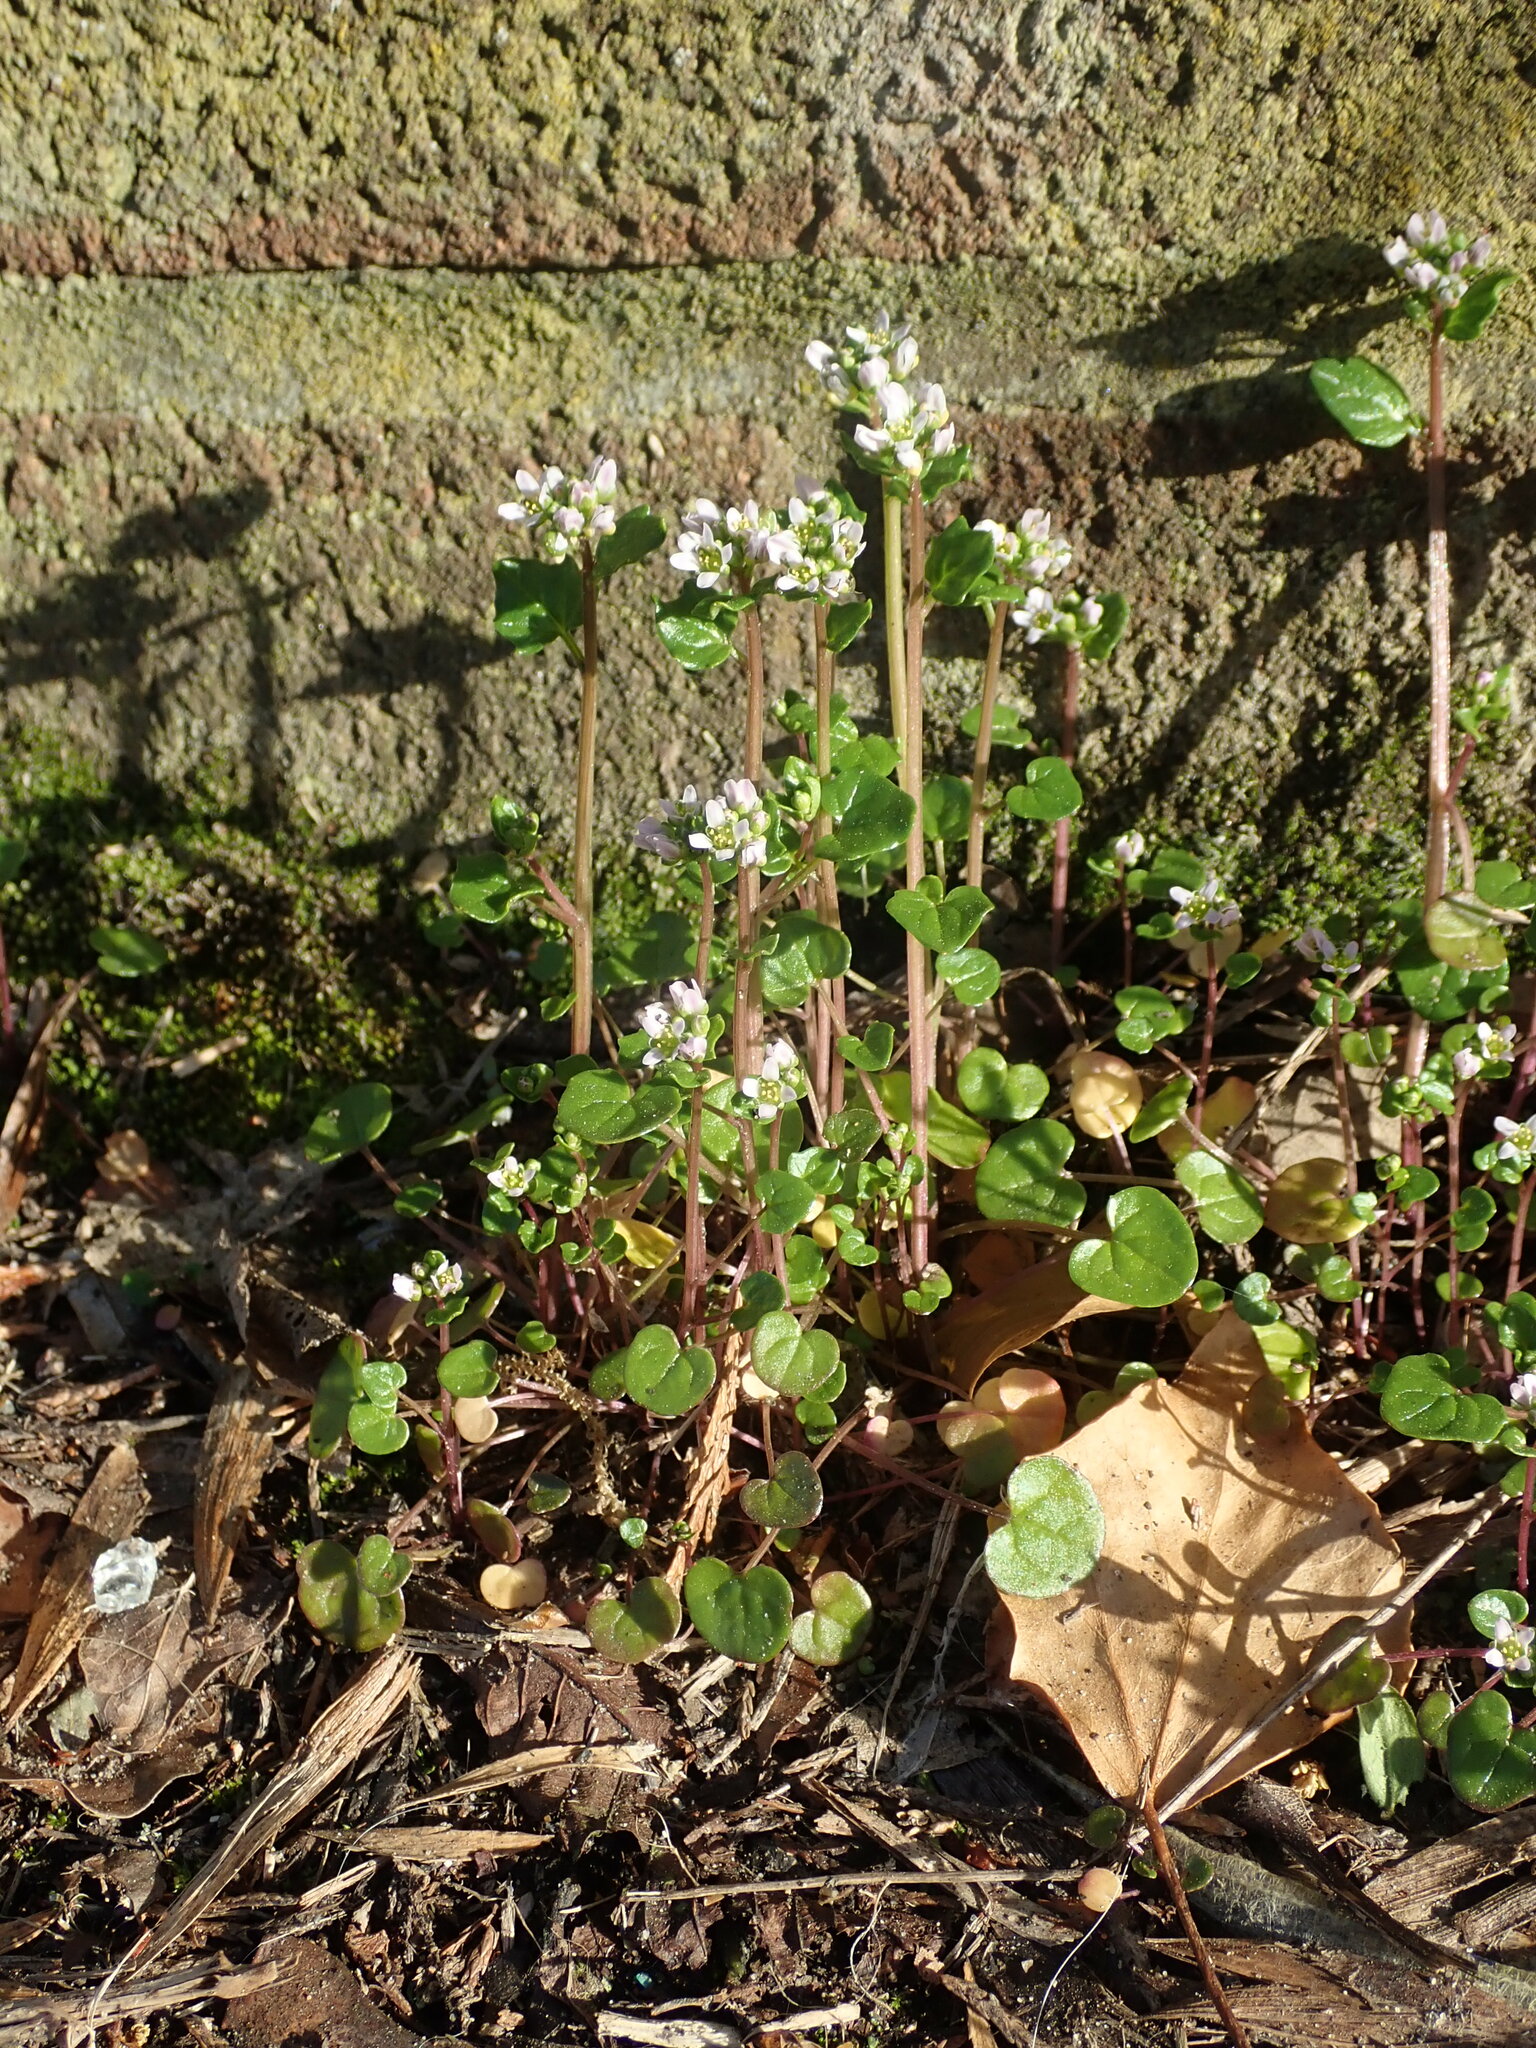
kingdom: Plantae
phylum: Tracheophyta
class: Magnoliopsida
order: Brassicales
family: Brassicaceae
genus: Cochlearia
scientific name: Cochlearia danica
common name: Early scurvygrass
